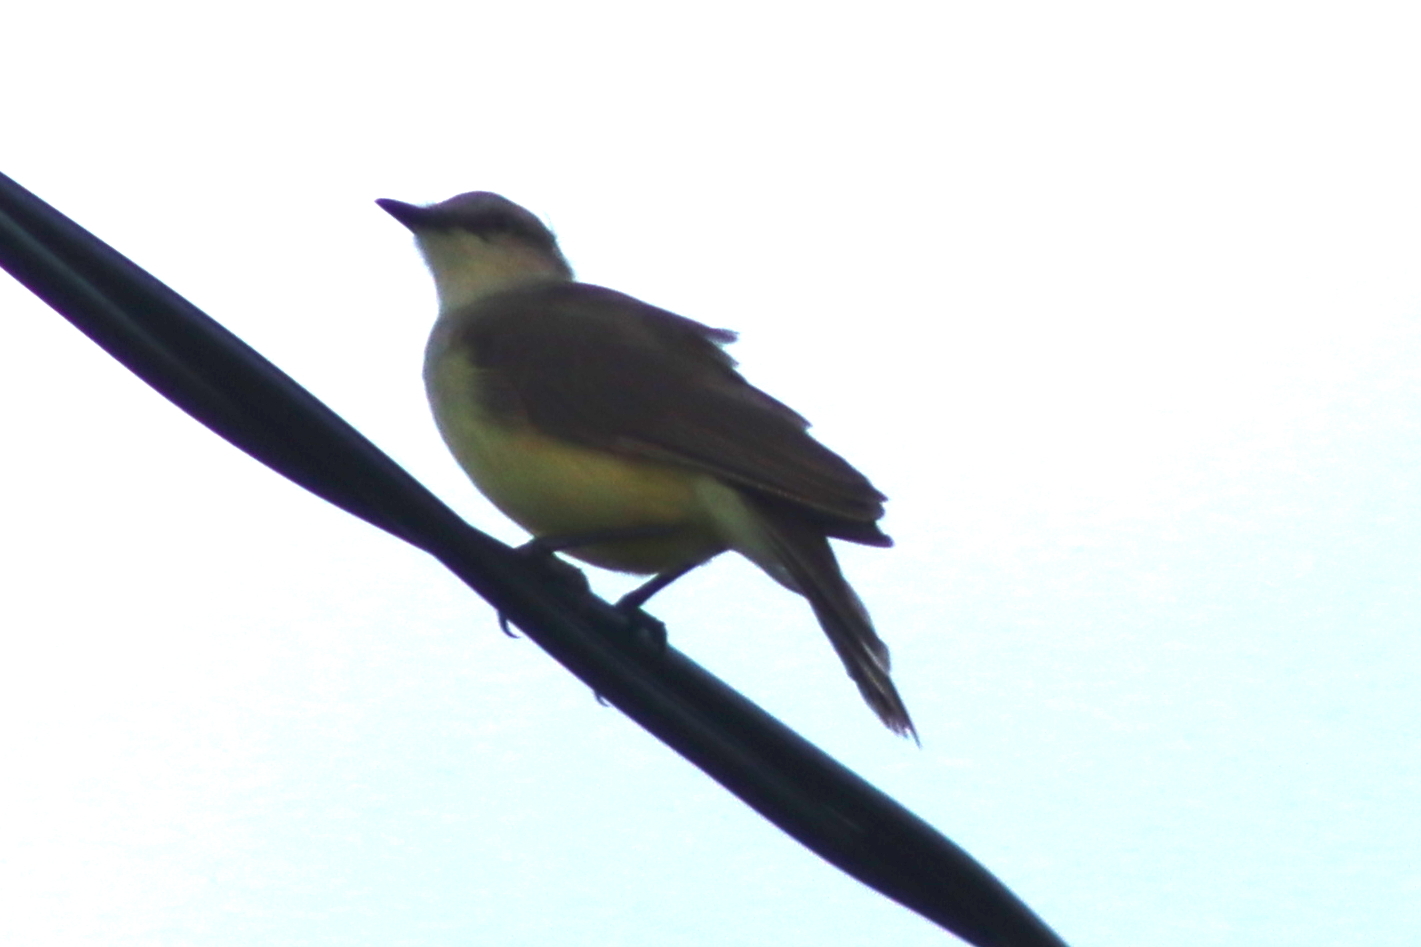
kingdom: Animalia
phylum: Chordata
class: Aves
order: Passeriformes
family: Tyrannidae
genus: Machetornis
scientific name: Machetornis rixosa
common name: Cattle tyrant
